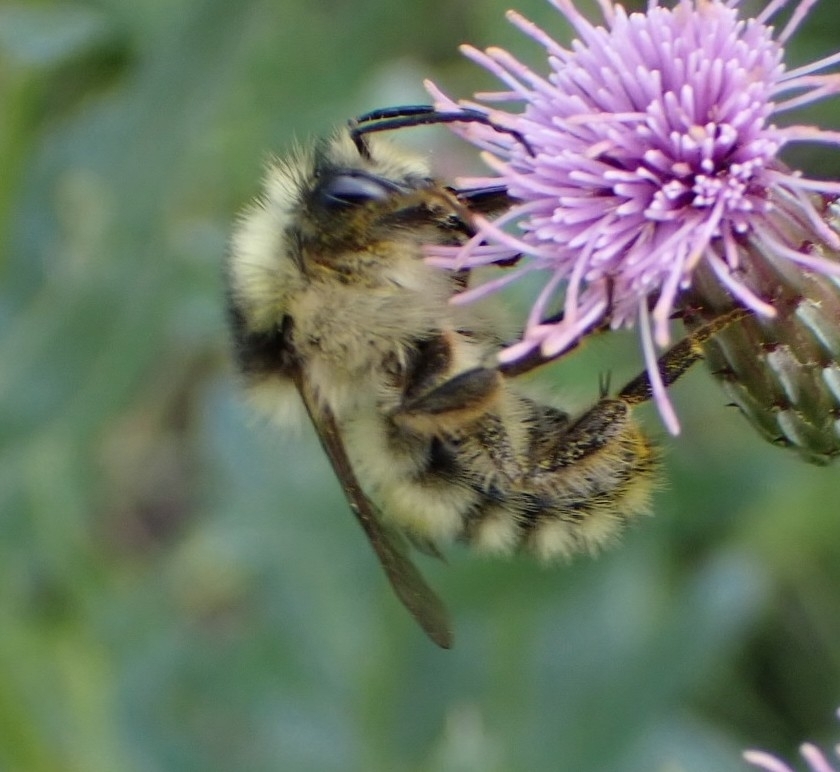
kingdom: Animalia
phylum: Arthropoda
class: Insecta
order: Hymenoptera
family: Apidae
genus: Bombus
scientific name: Bombus veteranus
